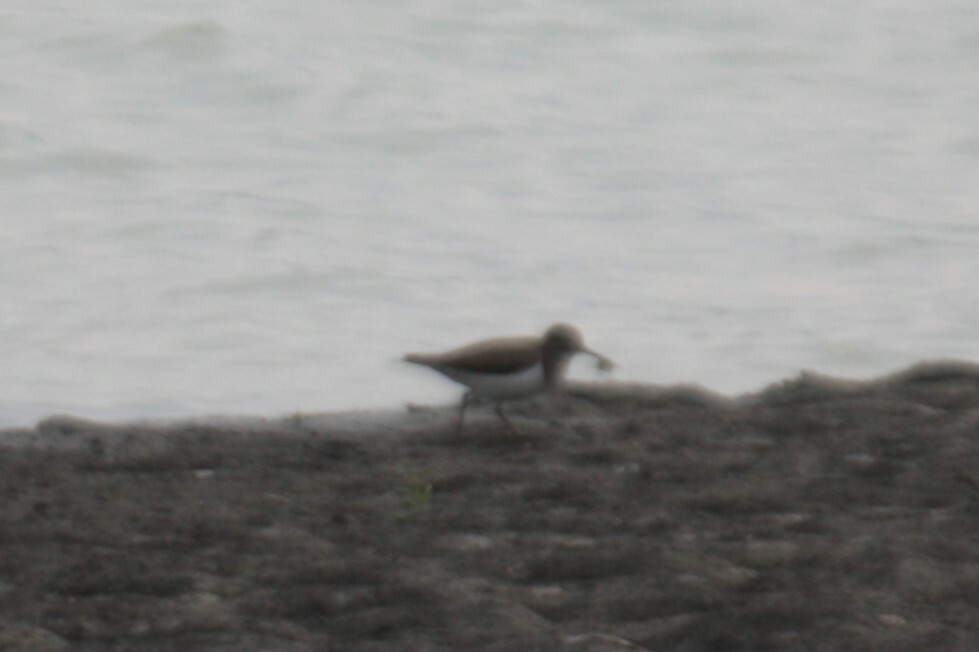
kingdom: Animalia
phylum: Chordata
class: Aves
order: Charadriiformes
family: Scolopacidae
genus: Actitis
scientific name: Actitis hypoleucos
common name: Common sandpiper
